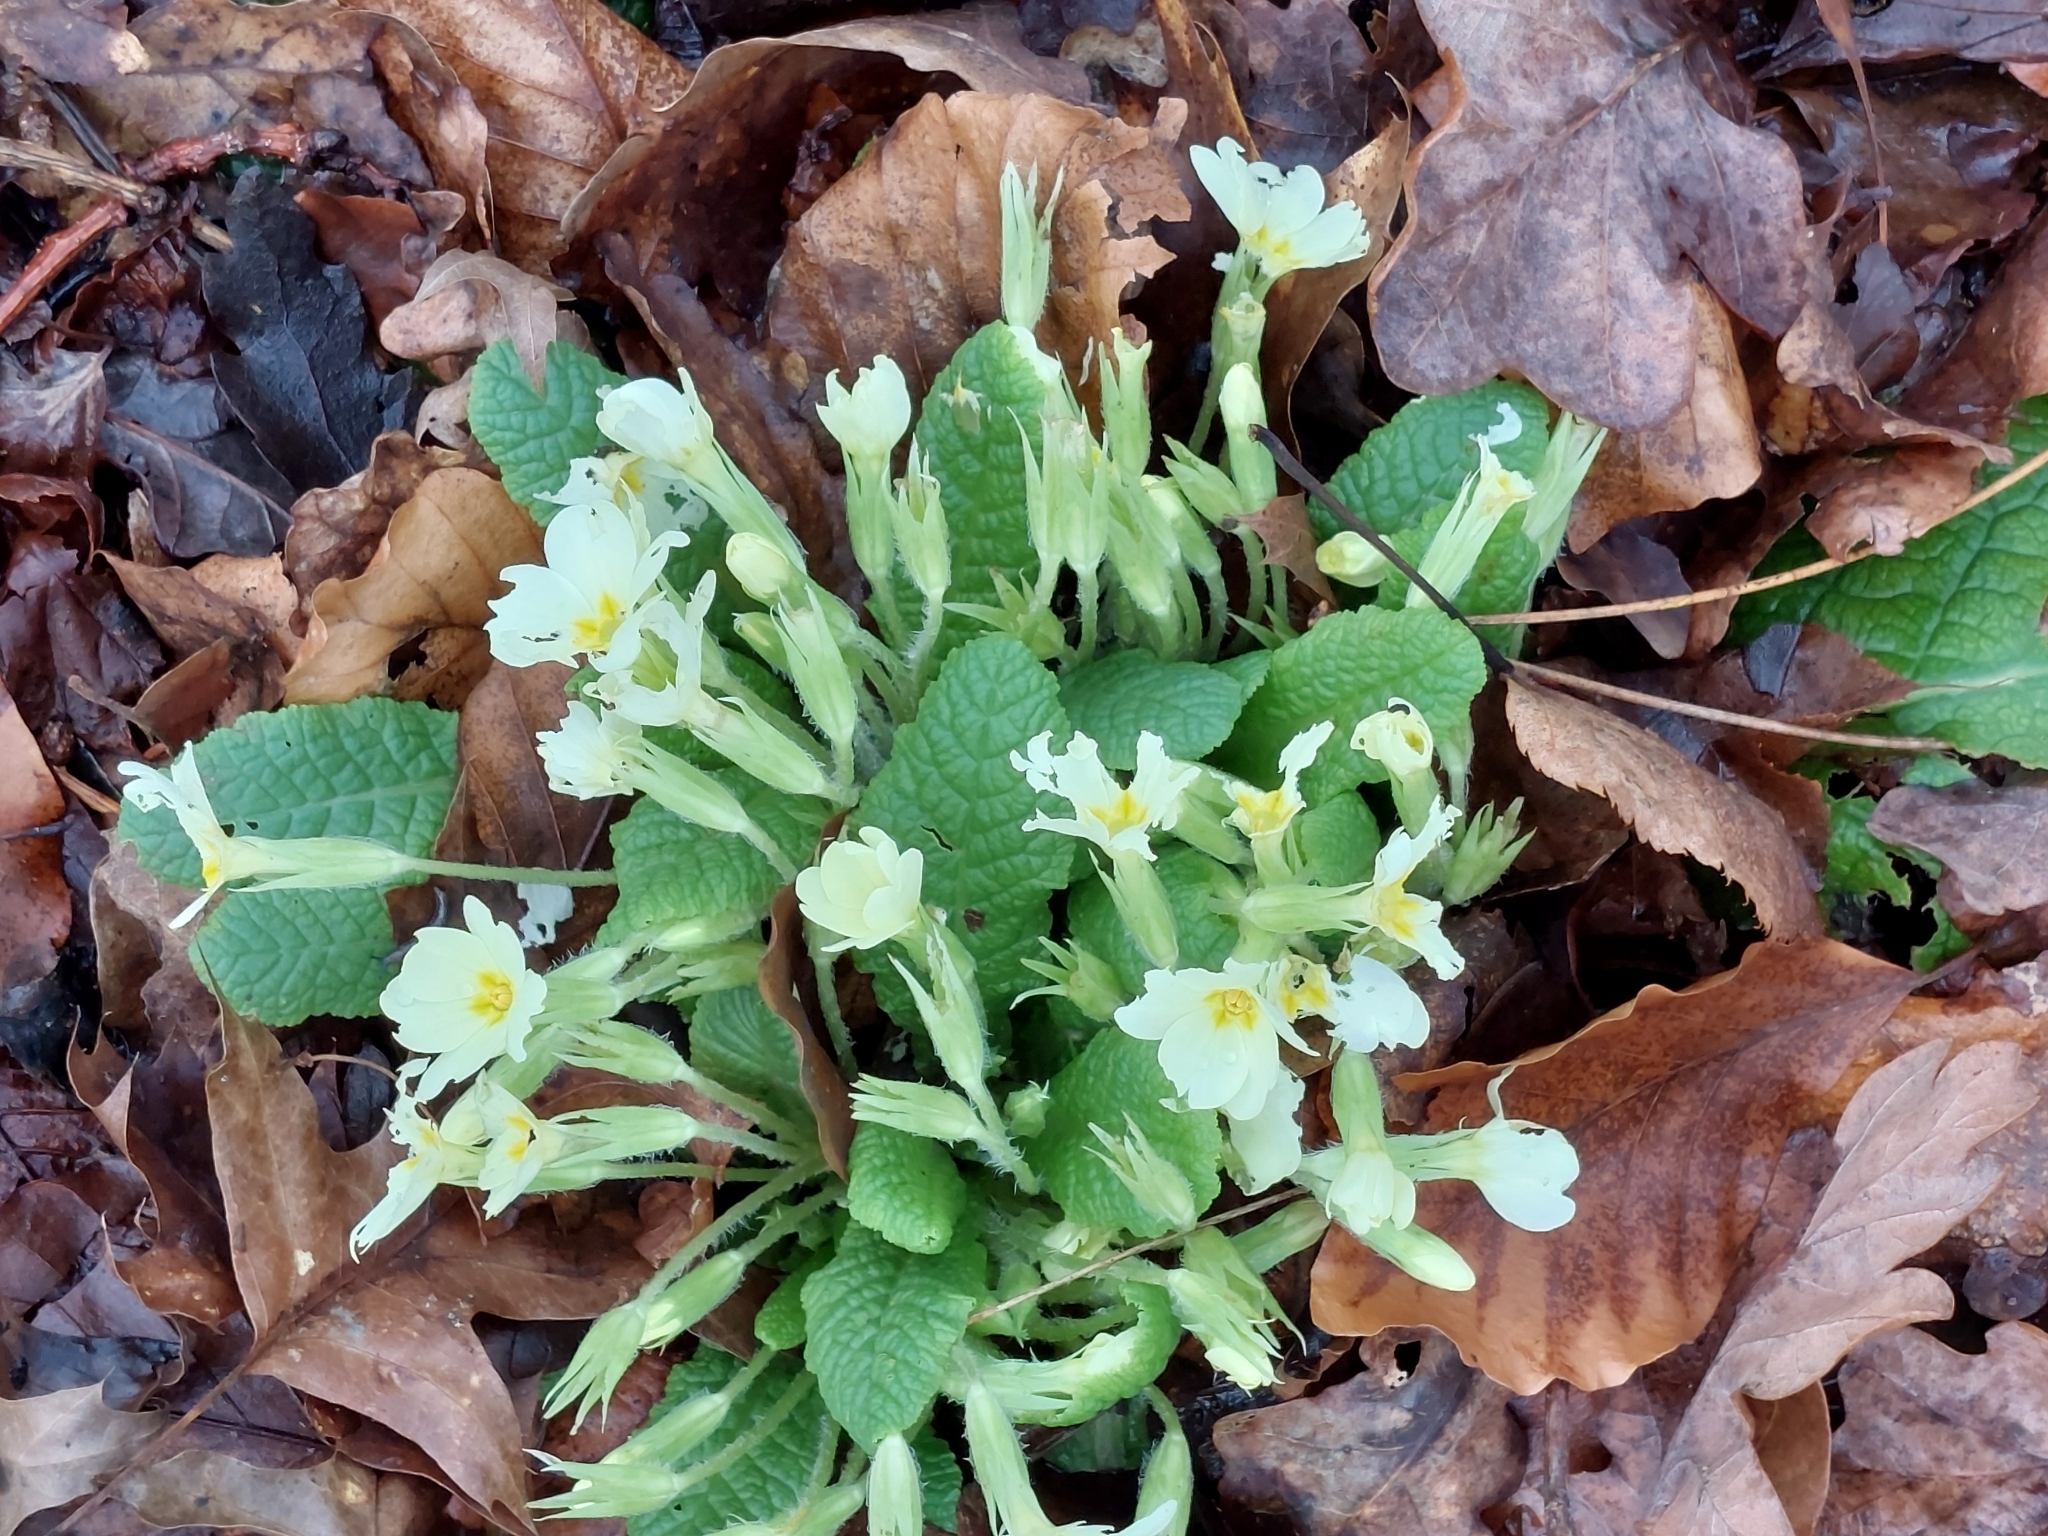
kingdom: Plantae
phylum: Tracheophyta
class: Magnoliopsida
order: Ericales
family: Primulaceae
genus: Primula
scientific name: Primula vulgaris
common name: Primrose
